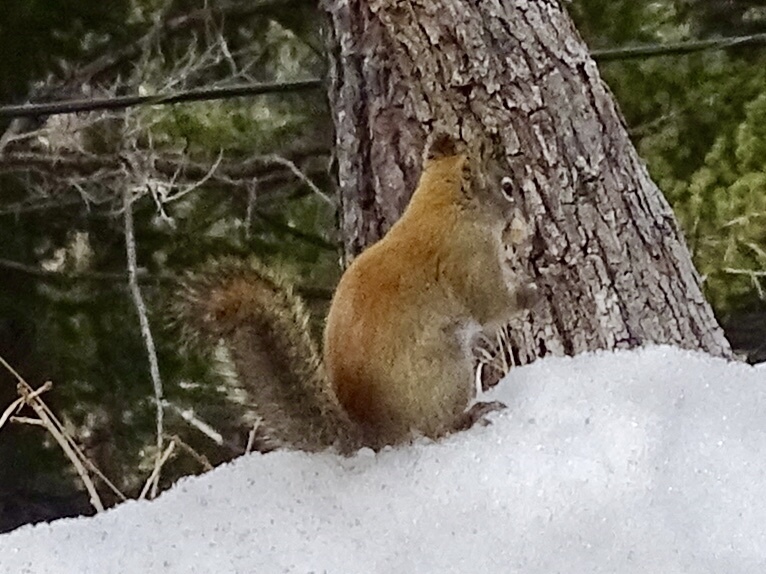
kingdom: Animalia
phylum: Chordata
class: Mammalia
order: Rodentia
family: Sciuridae
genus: Tamiasciurus
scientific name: Tamiasciurus hudsonicus
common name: Red squirrel
